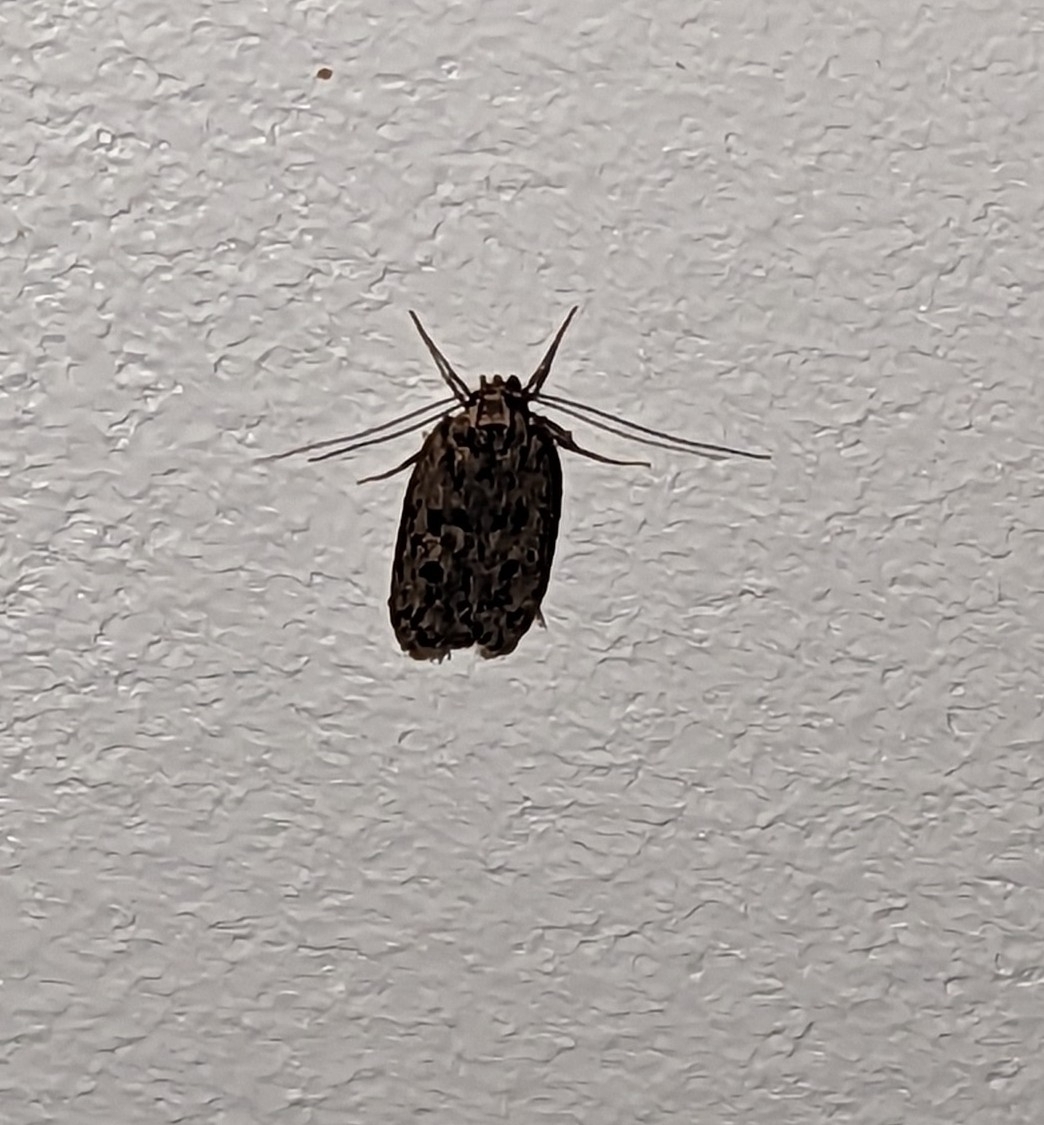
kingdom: Animalia
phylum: Arthropoda
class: Insecta
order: Lepidoptera
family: Oecophoridae
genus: Hofmannophila
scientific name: Hofmannophila pseudospretella
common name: Brown house moth
